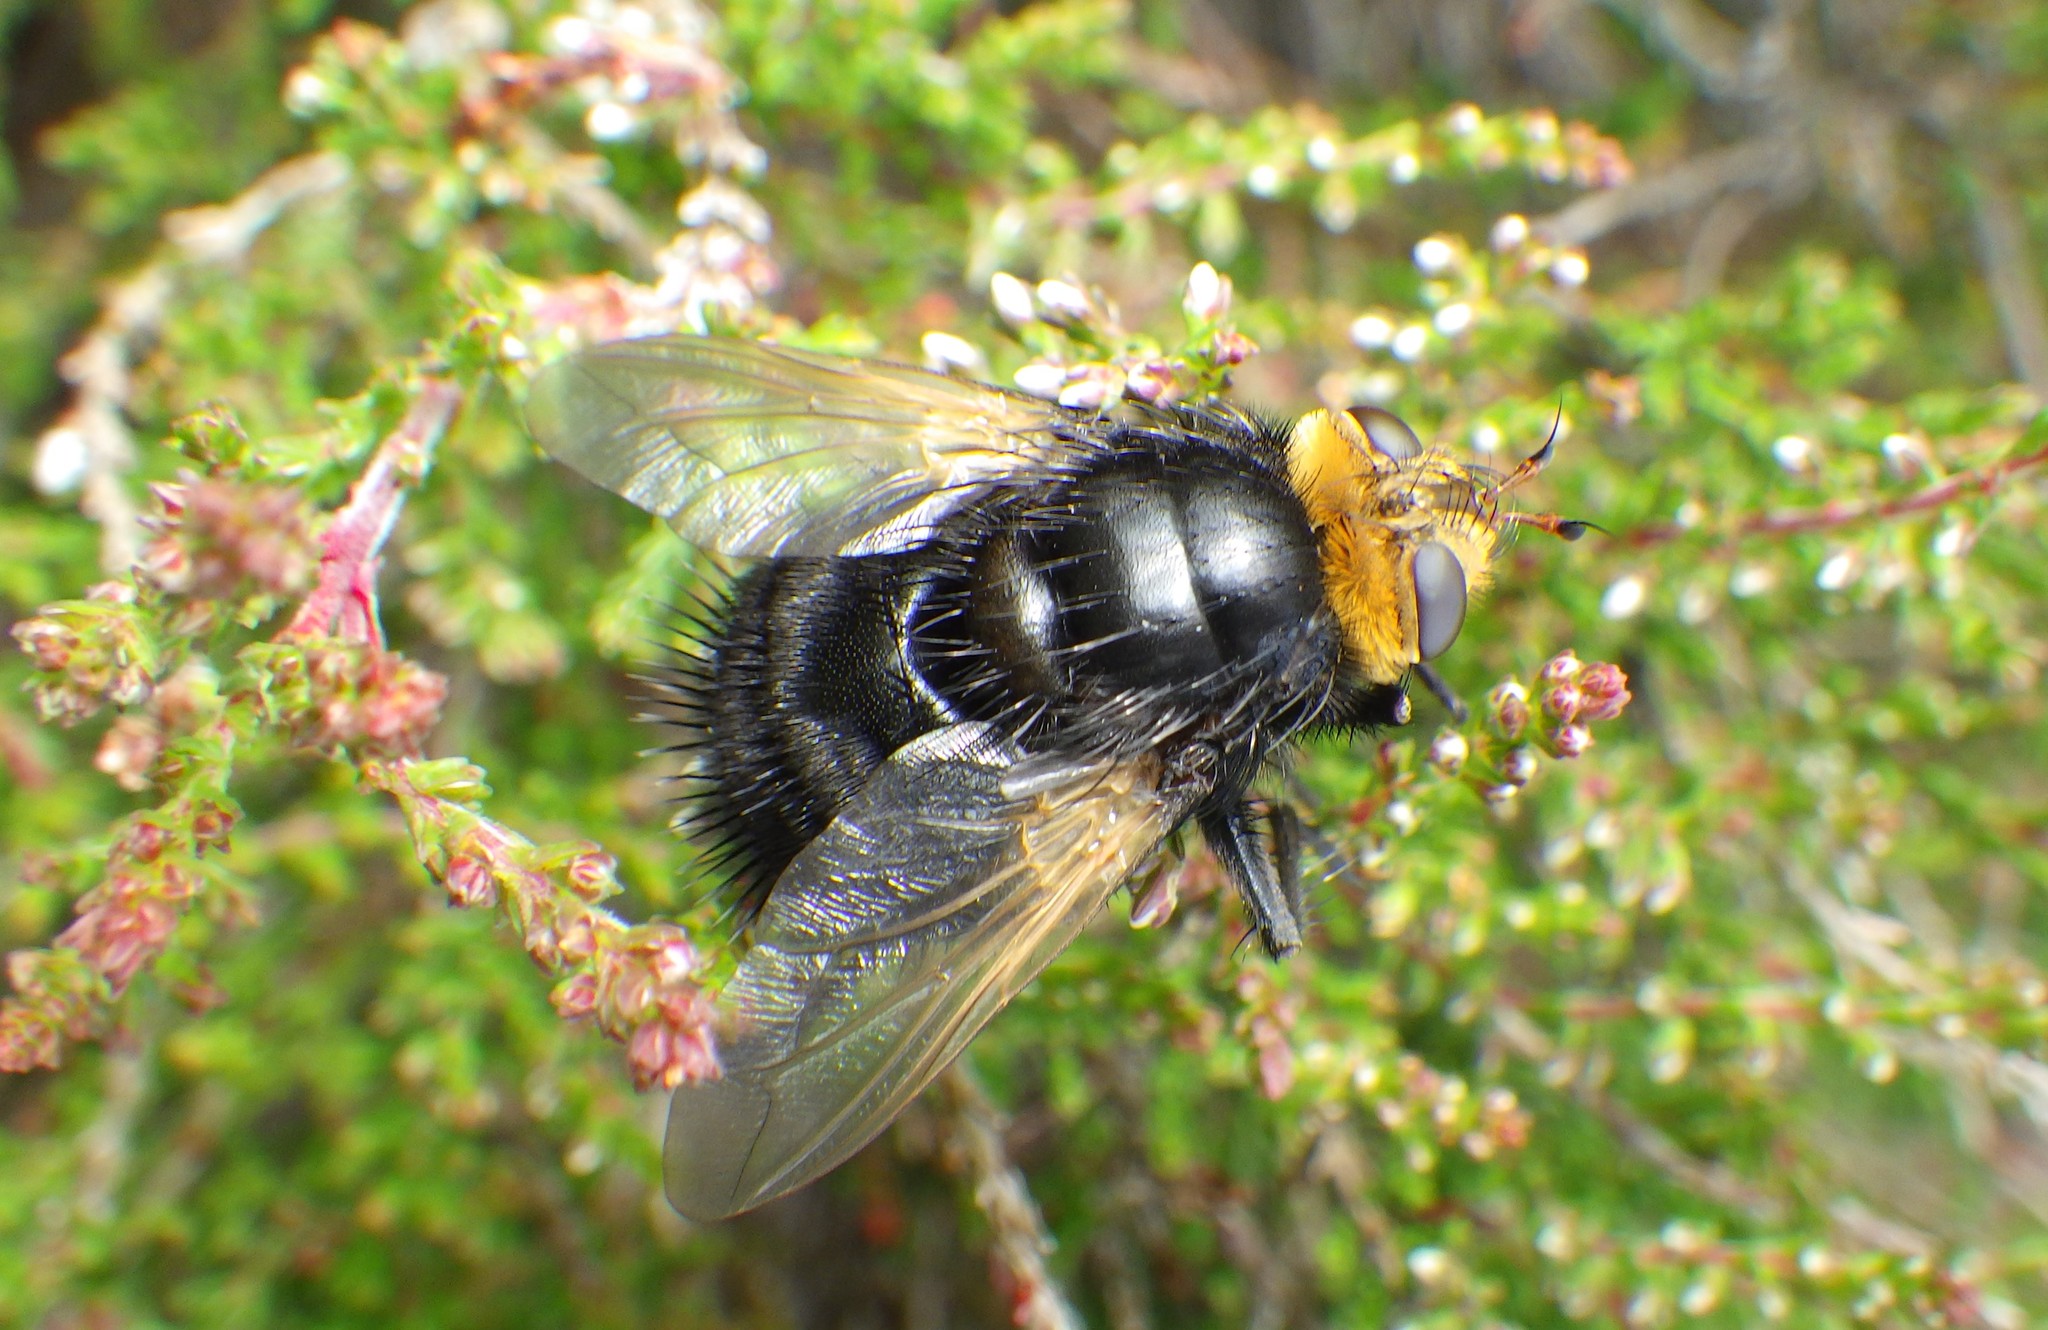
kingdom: Animalia
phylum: Arthropoda
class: Insecta
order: Diptera
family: Tachinidae
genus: Tachina
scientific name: Tachina grossa
